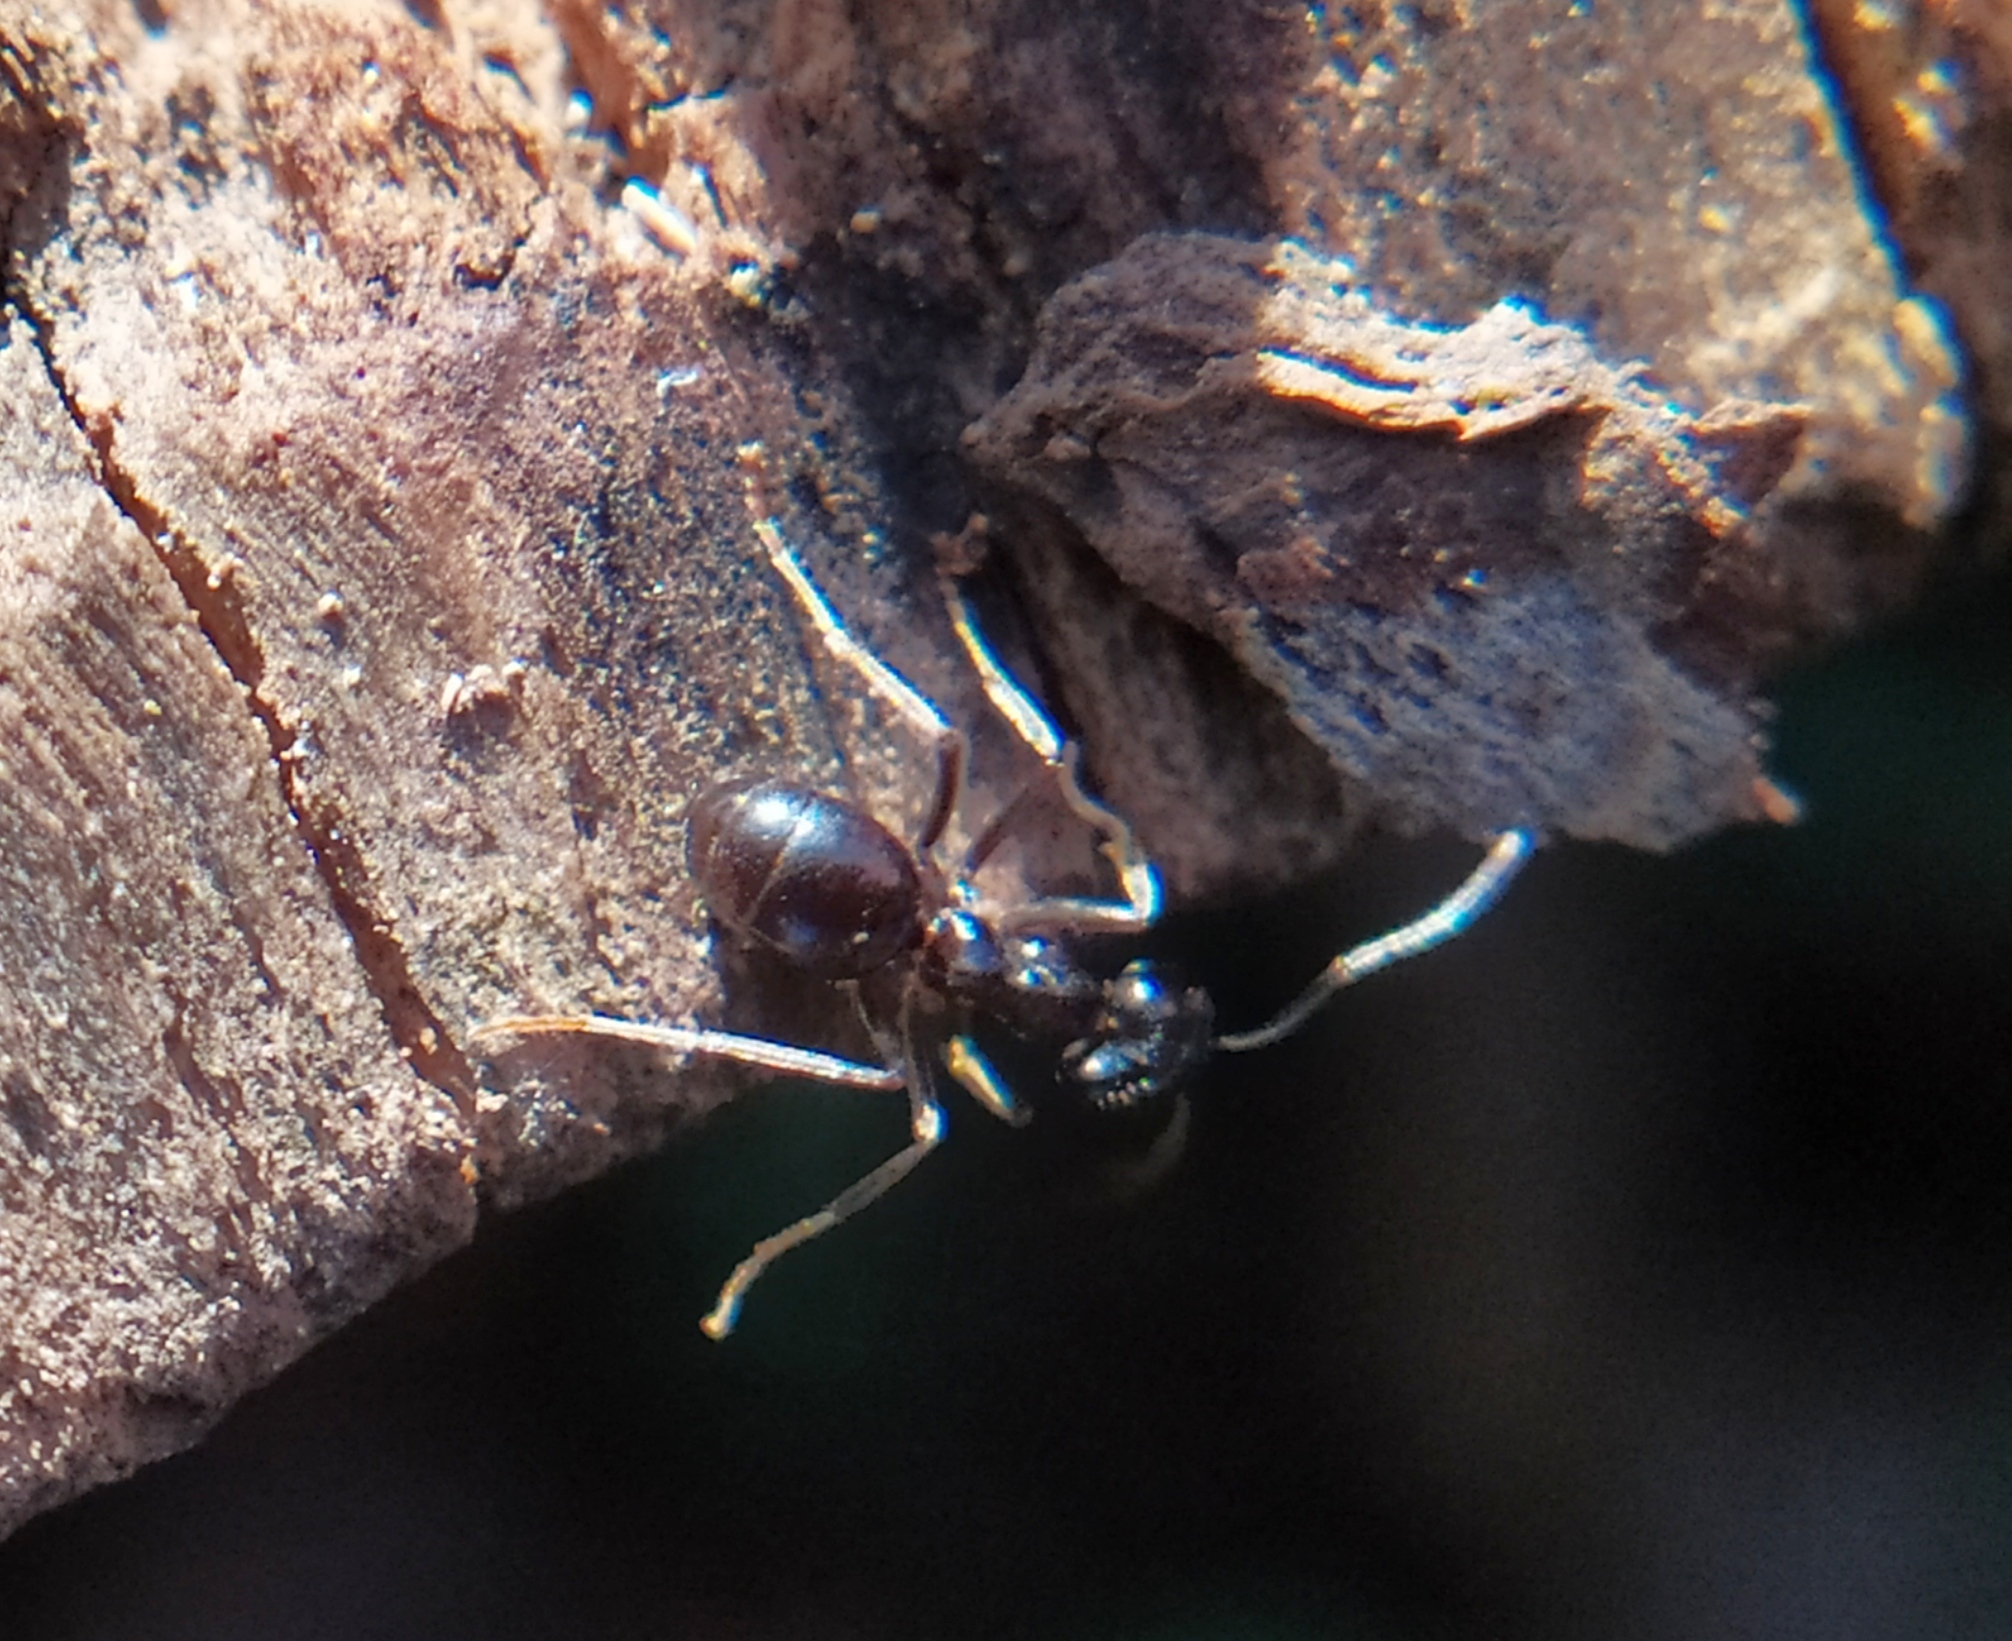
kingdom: Animalia
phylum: Arthropoda
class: Insecta
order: Hymenoptera
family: Formicidae
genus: Lasius
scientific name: Lasius fuliginosus
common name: Jet ant
